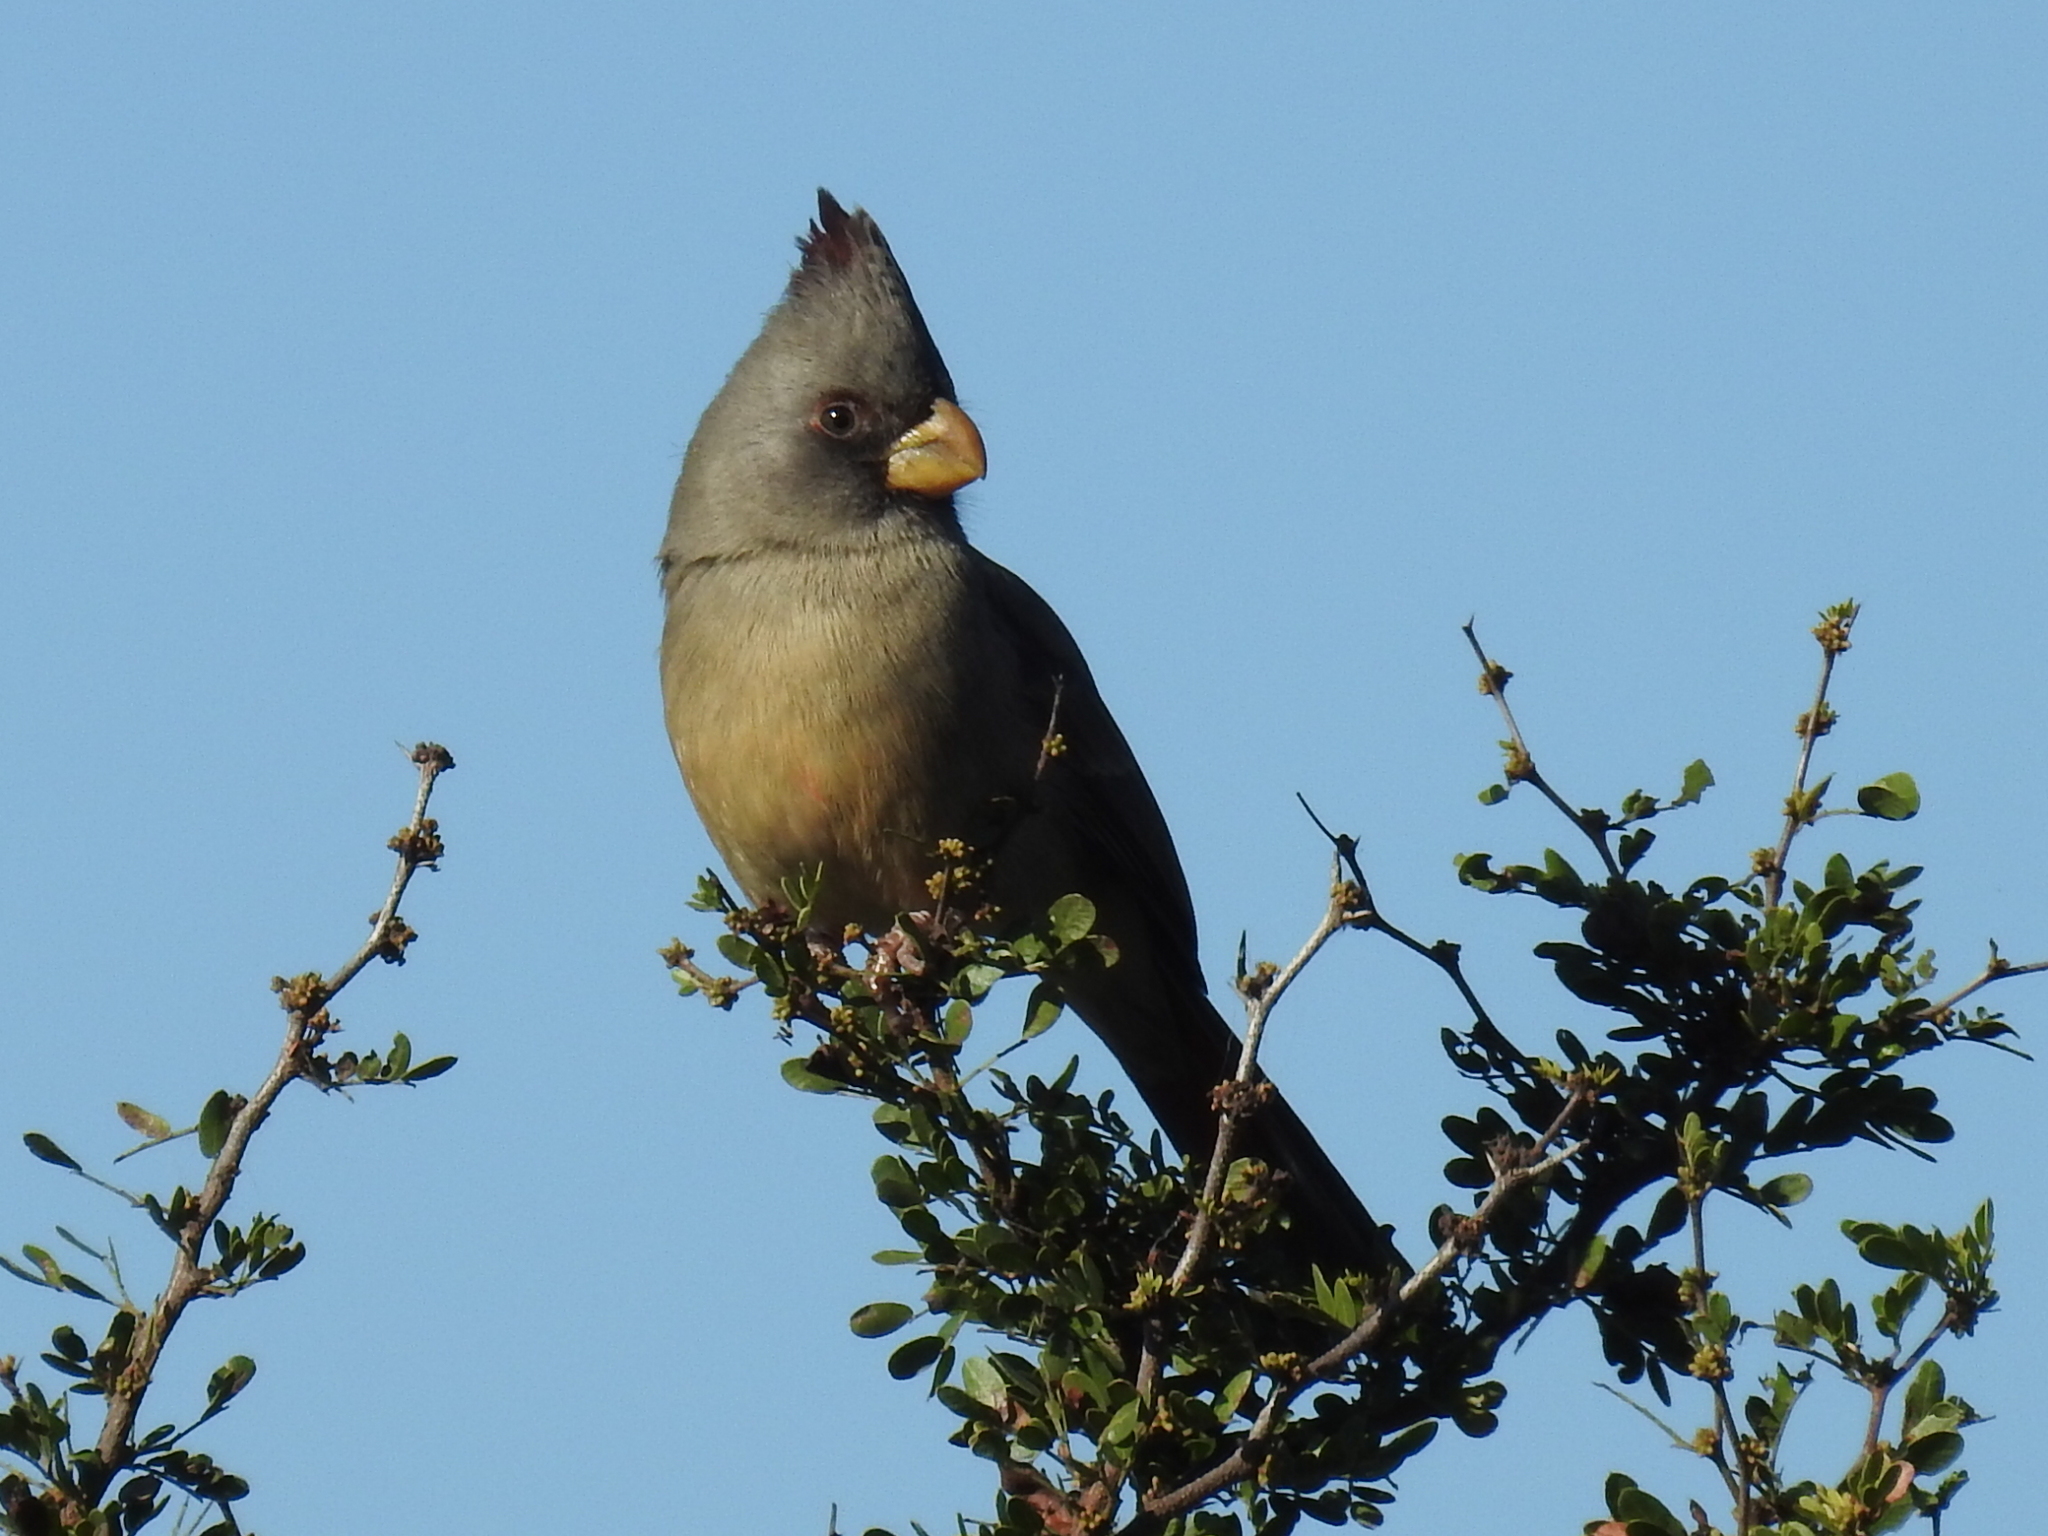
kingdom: Animalia
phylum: Chordata
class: Aves
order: Passeriformes
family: Cardinalidae
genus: Cardinalis
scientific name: Cardinalis sinuatus
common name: Pyrrhuloxia
